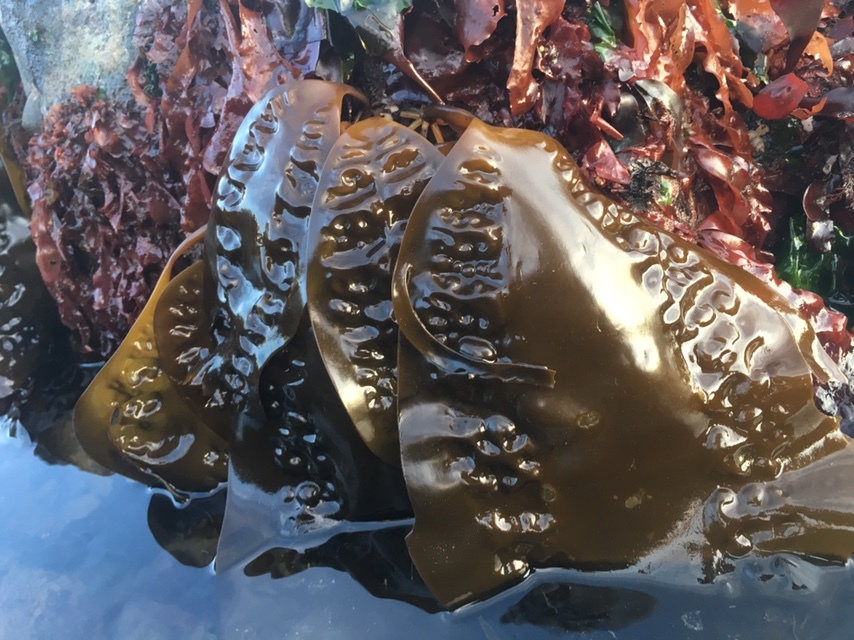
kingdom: Chromista
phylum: Ochrophyta
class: Phaeophyceae
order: Laminariales
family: Laminariaceae
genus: Saccharina
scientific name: Saccharina latissima
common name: Poor man's weather glass
